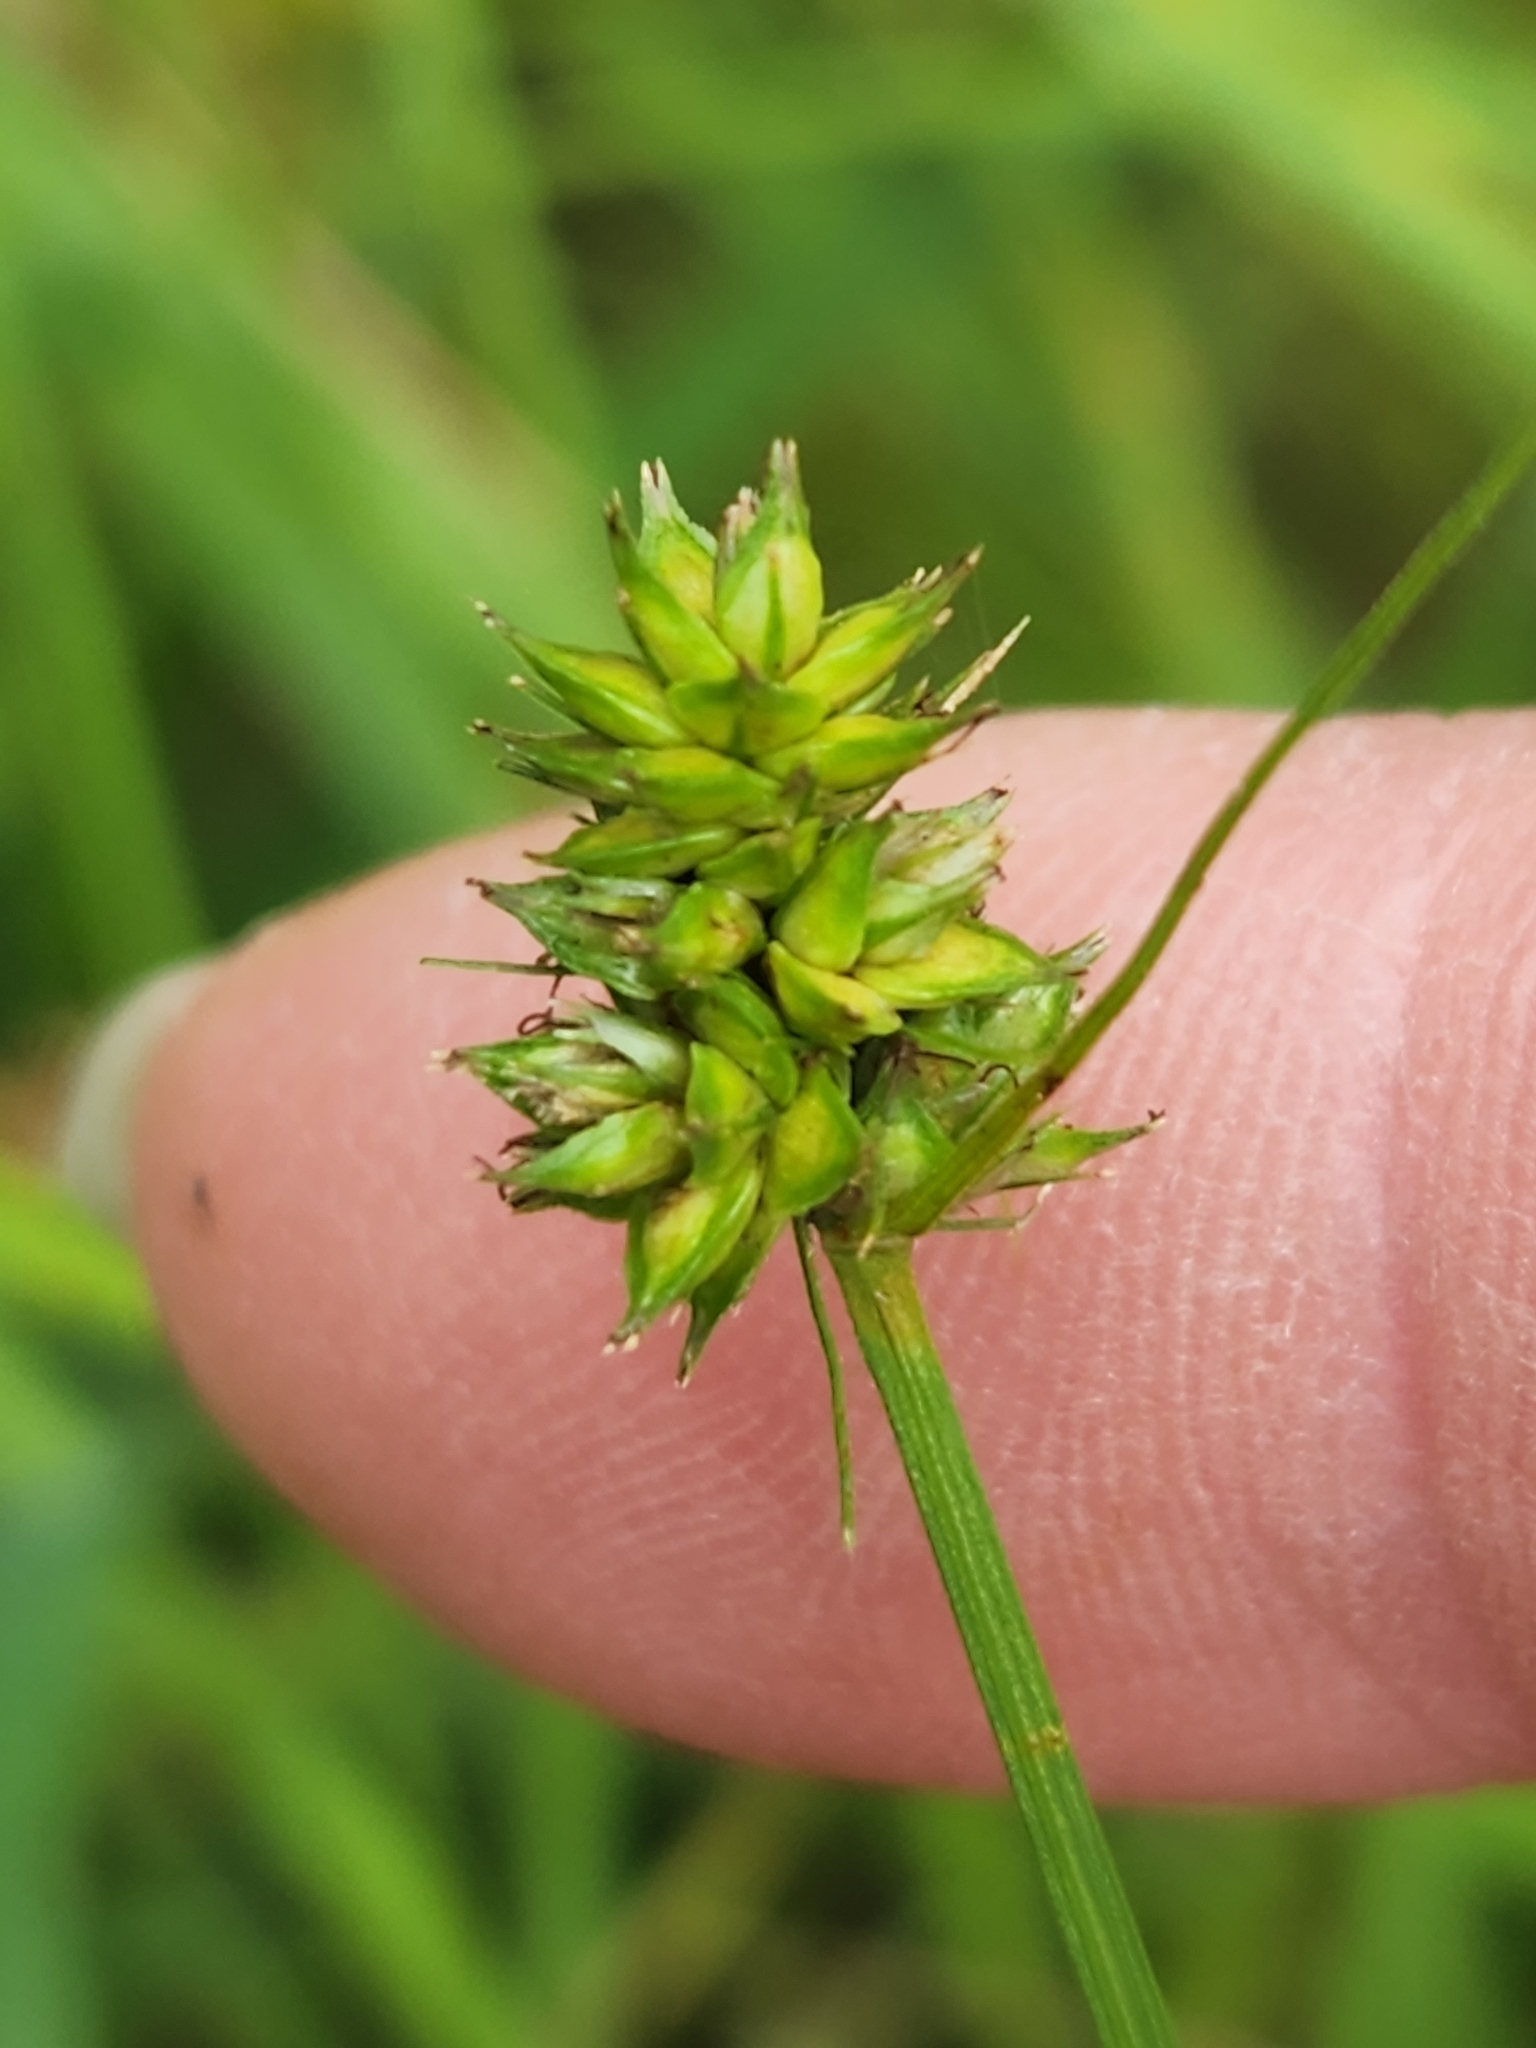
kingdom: Plantae
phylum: Tracheophyta
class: Liliopsida
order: Poales
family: Cyperaceae
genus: Carex
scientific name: Carex muehlenbergii
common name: Muhlenberg's bracted sedge
